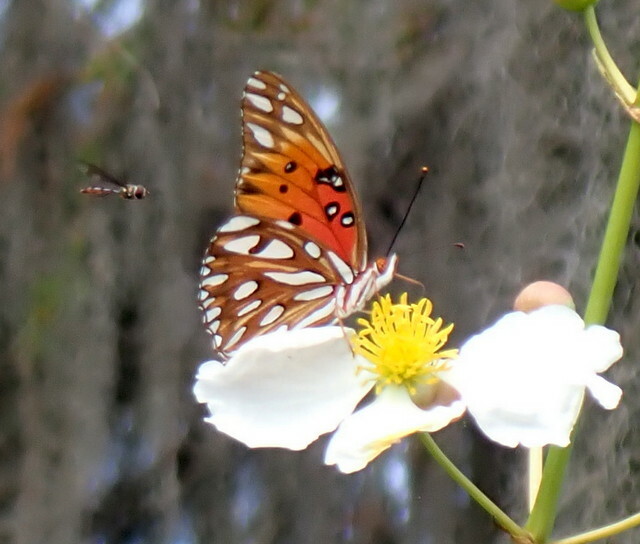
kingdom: Animalia
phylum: Arthropoda
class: Insecta
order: Lepidoptera
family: Nymphalidae
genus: Dione
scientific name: Dione vanillae
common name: Gulf fritillary
